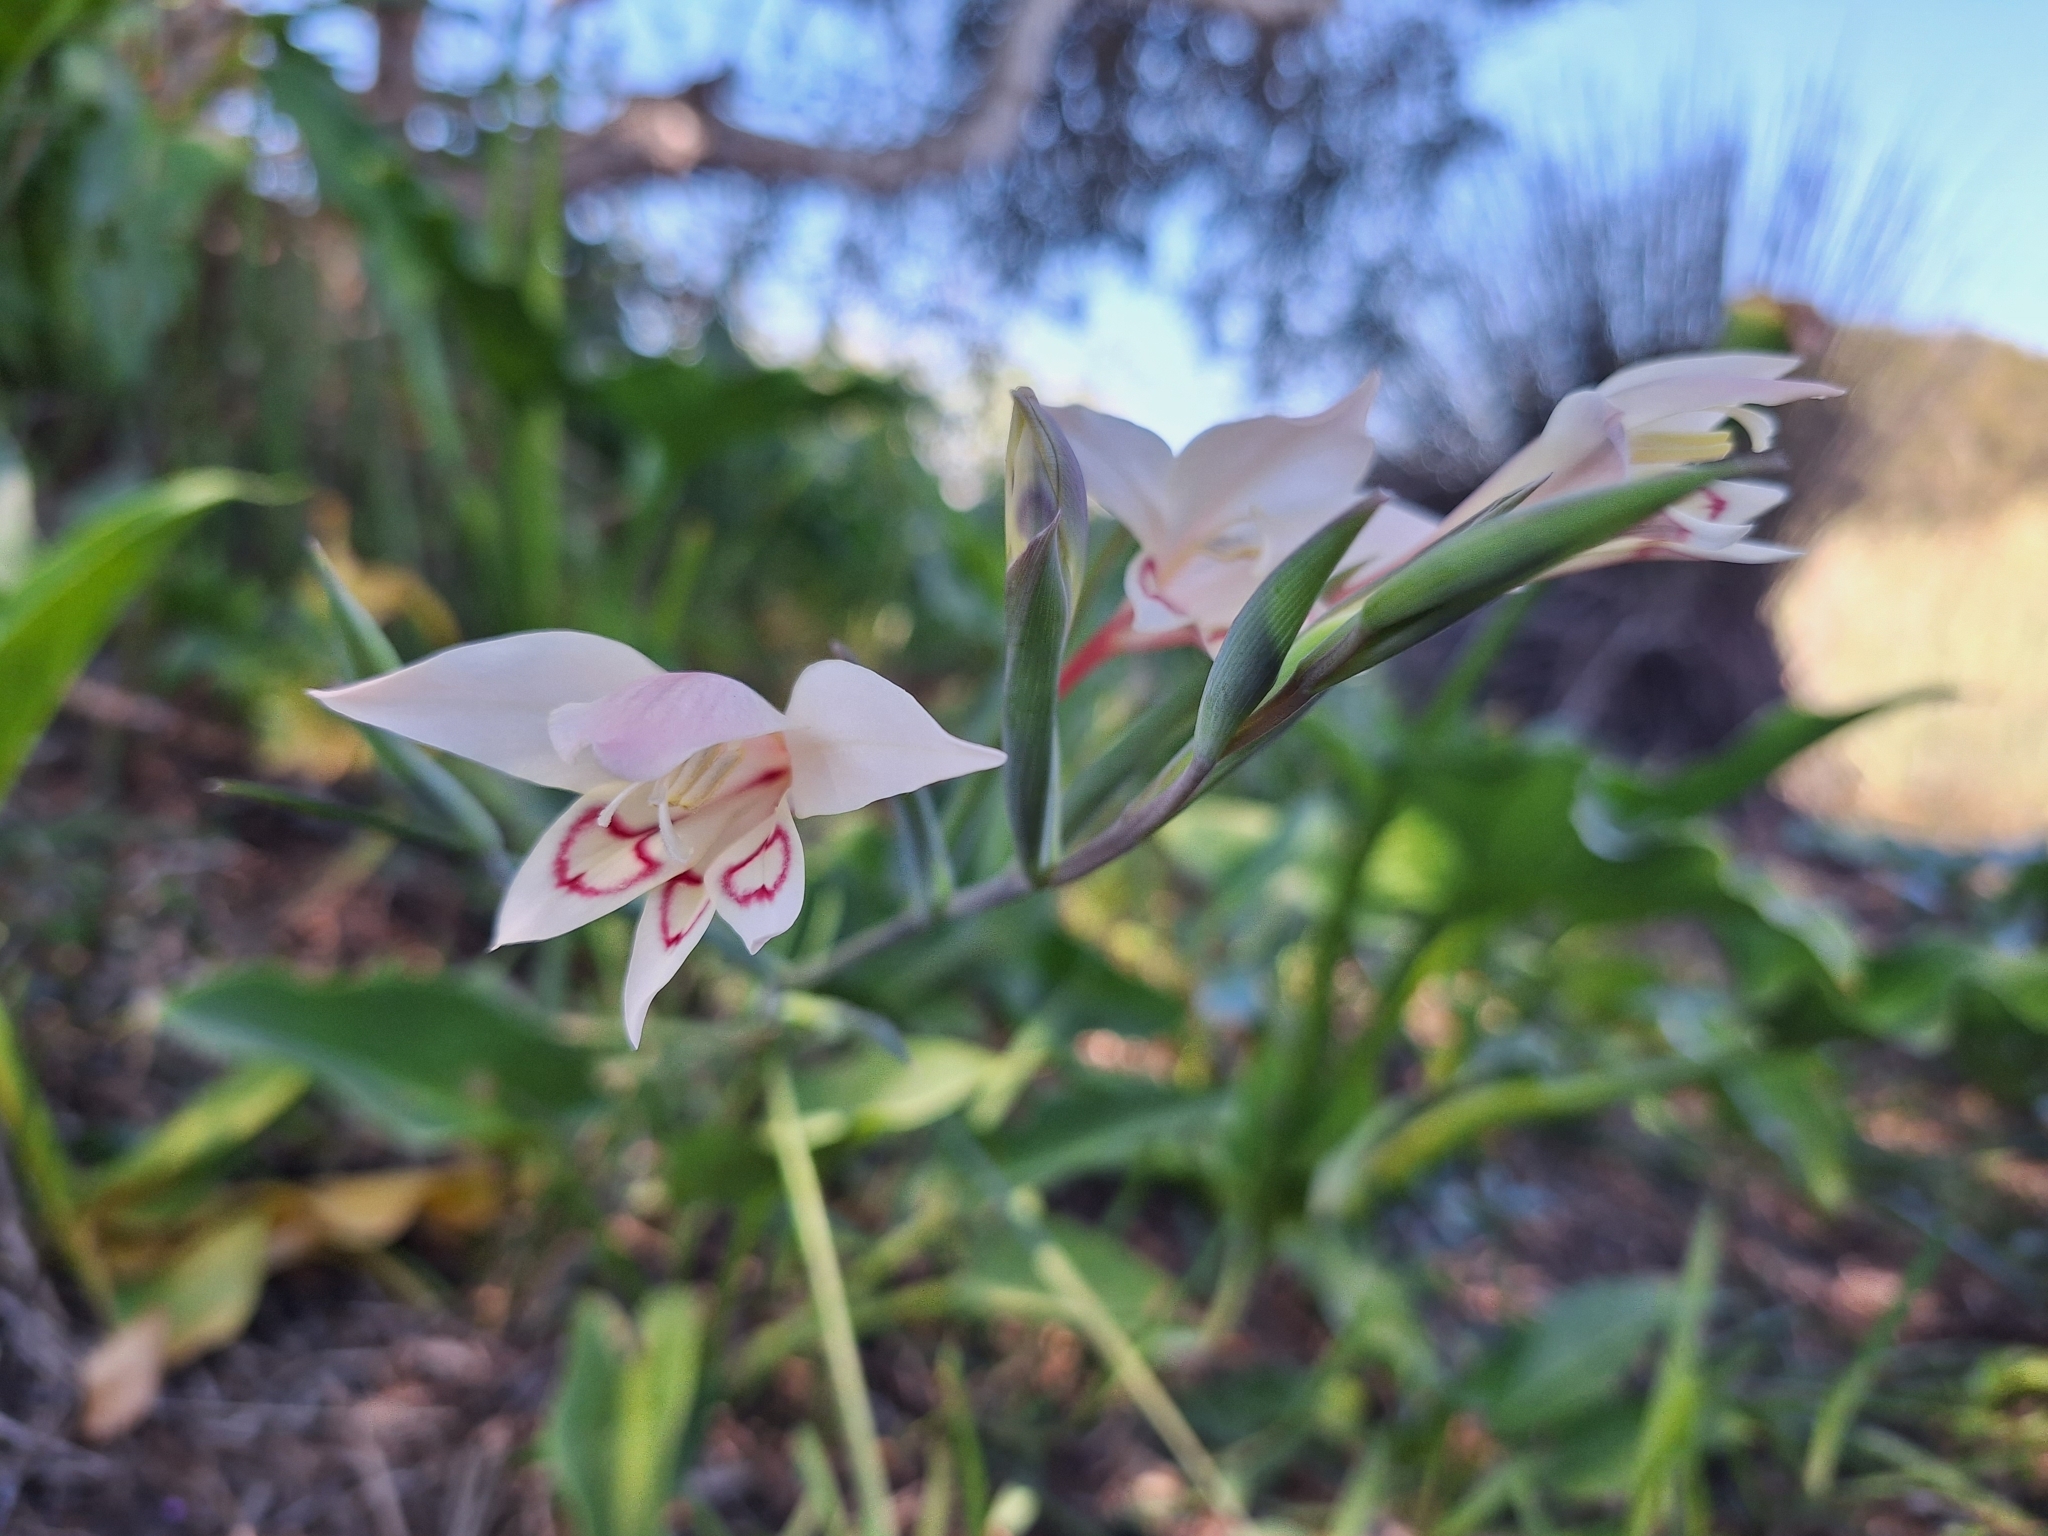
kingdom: Plantae
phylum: Tracheophyta
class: Liliopsida
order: Asparagales
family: Iridaceae
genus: Gladiolus
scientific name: Gladiolus angustus
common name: Painted-lady
